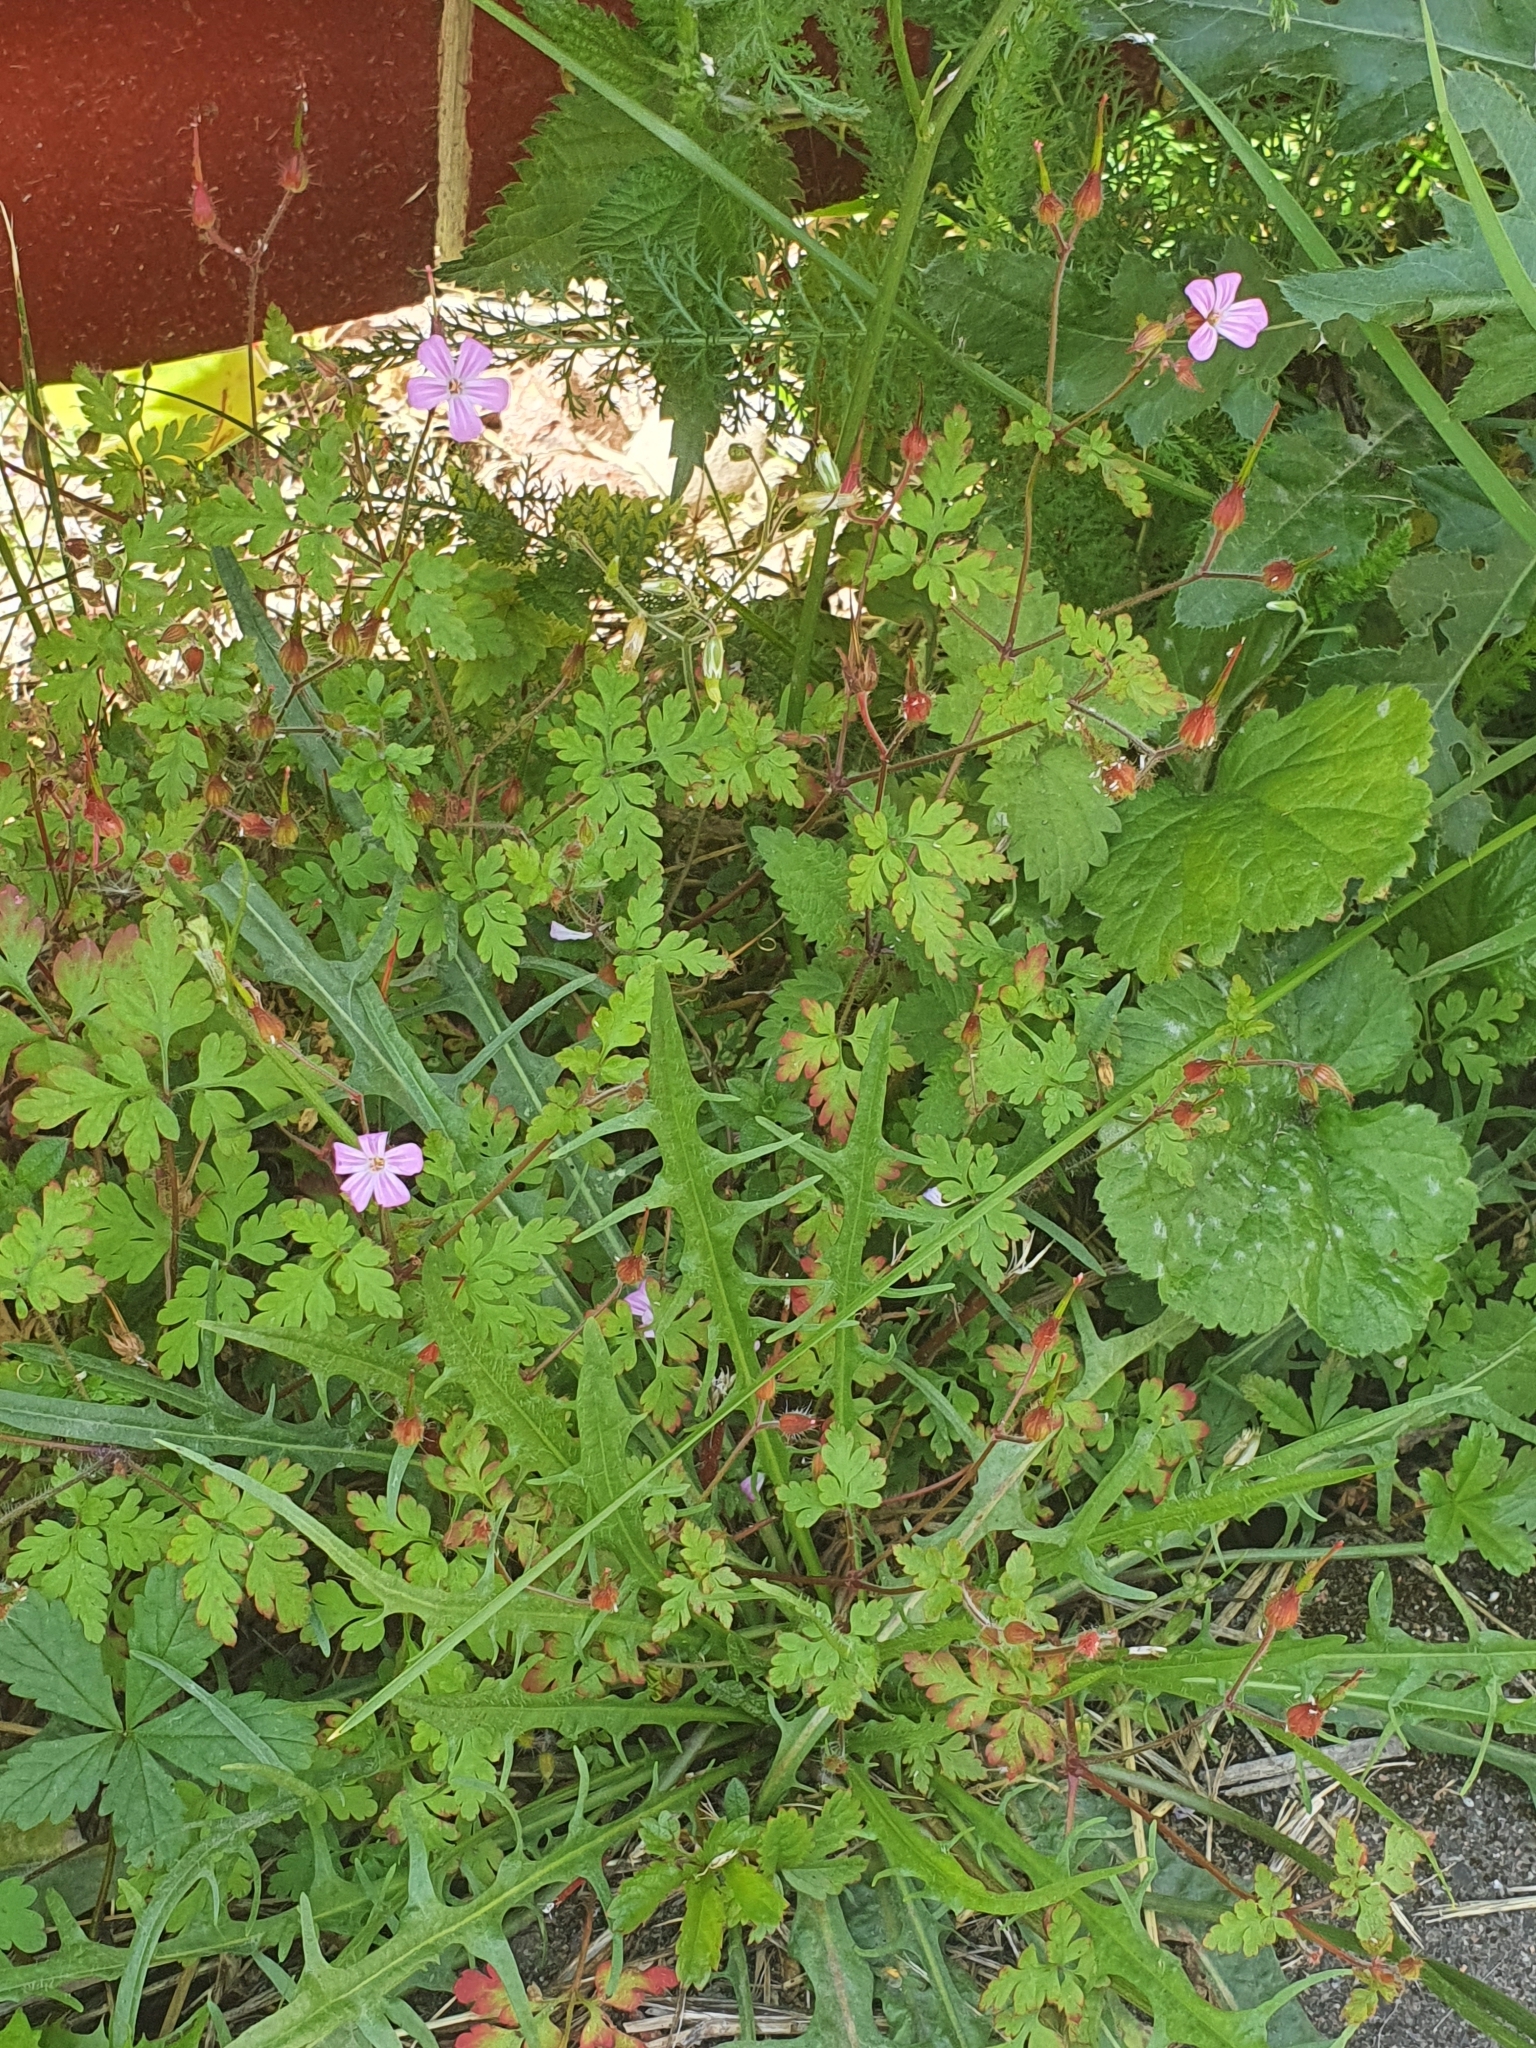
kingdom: Plantae
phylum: Tracheophyta
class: Magnoliopsida
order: Geraniales
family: Geraniaceae
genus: Geranium
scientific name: Geranium robertianum
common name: Herb-robert
